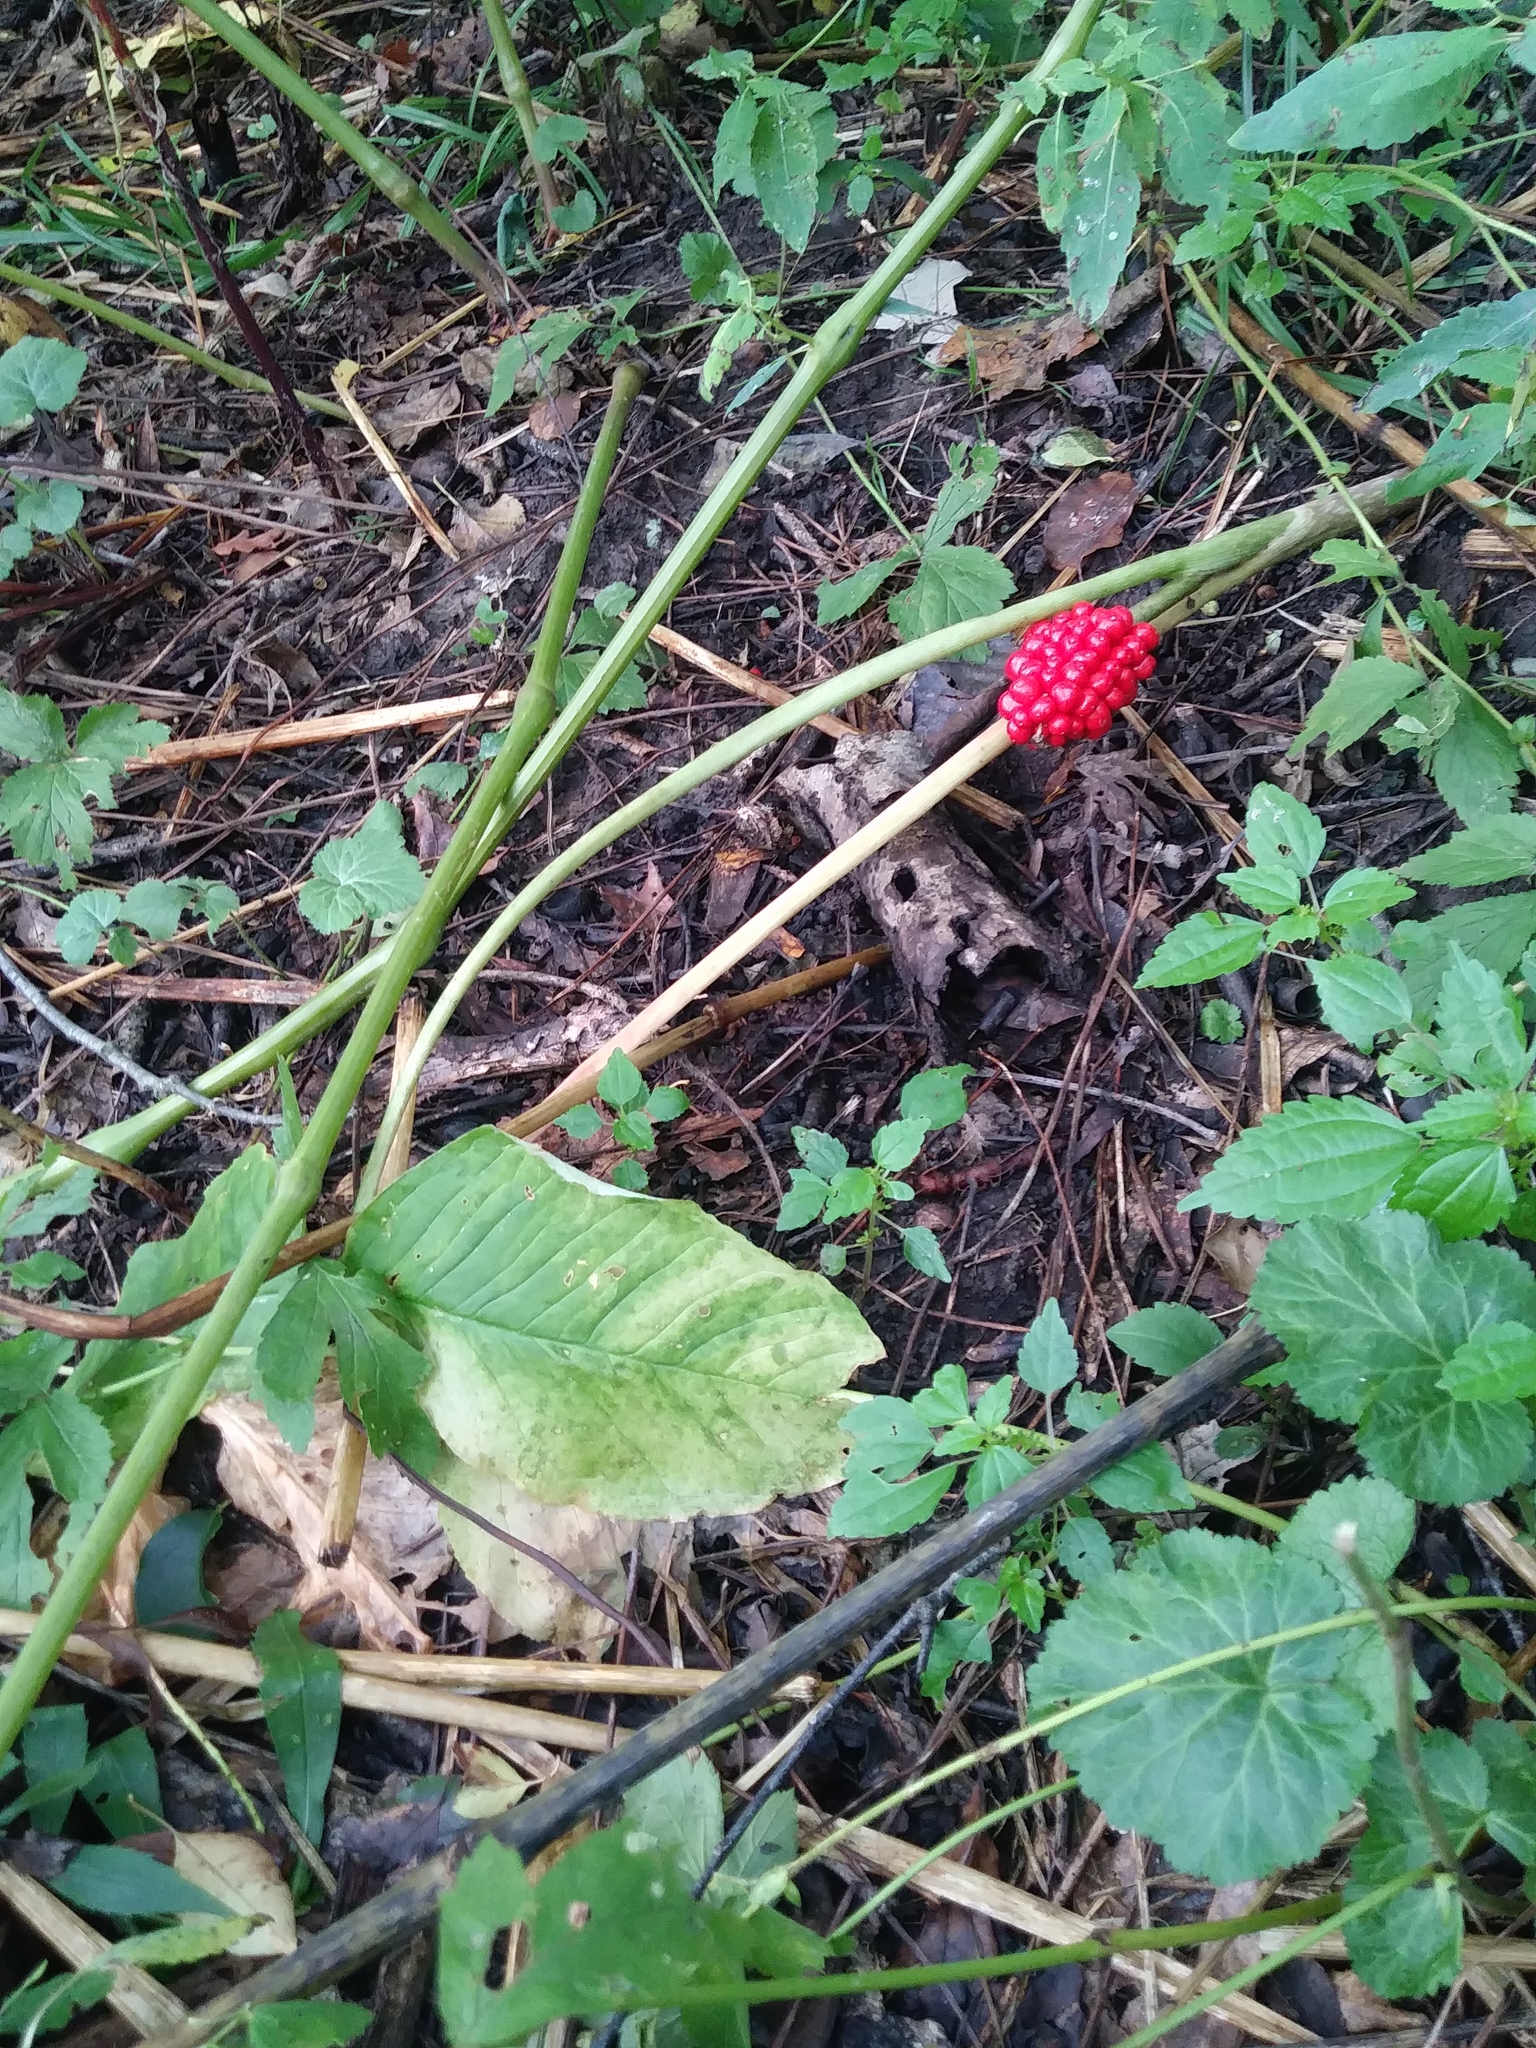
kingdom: Plantae
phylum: Tracheophyta
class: Liliopsida
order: Alismatales
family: Araceae
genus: Arisaema
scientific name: Arisaema triphyllum
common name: Jack-in-the-pulpit
